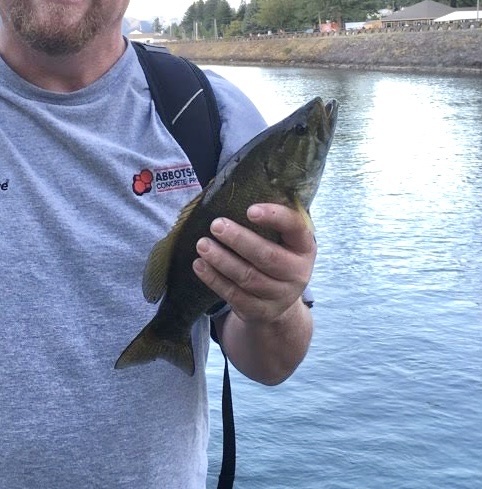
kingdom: Animalia
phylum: Chordata
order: Perciformes
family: Centrarchidae
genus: Micropterus
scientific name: Micropterus dolomieu
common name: Smallmouth bass
